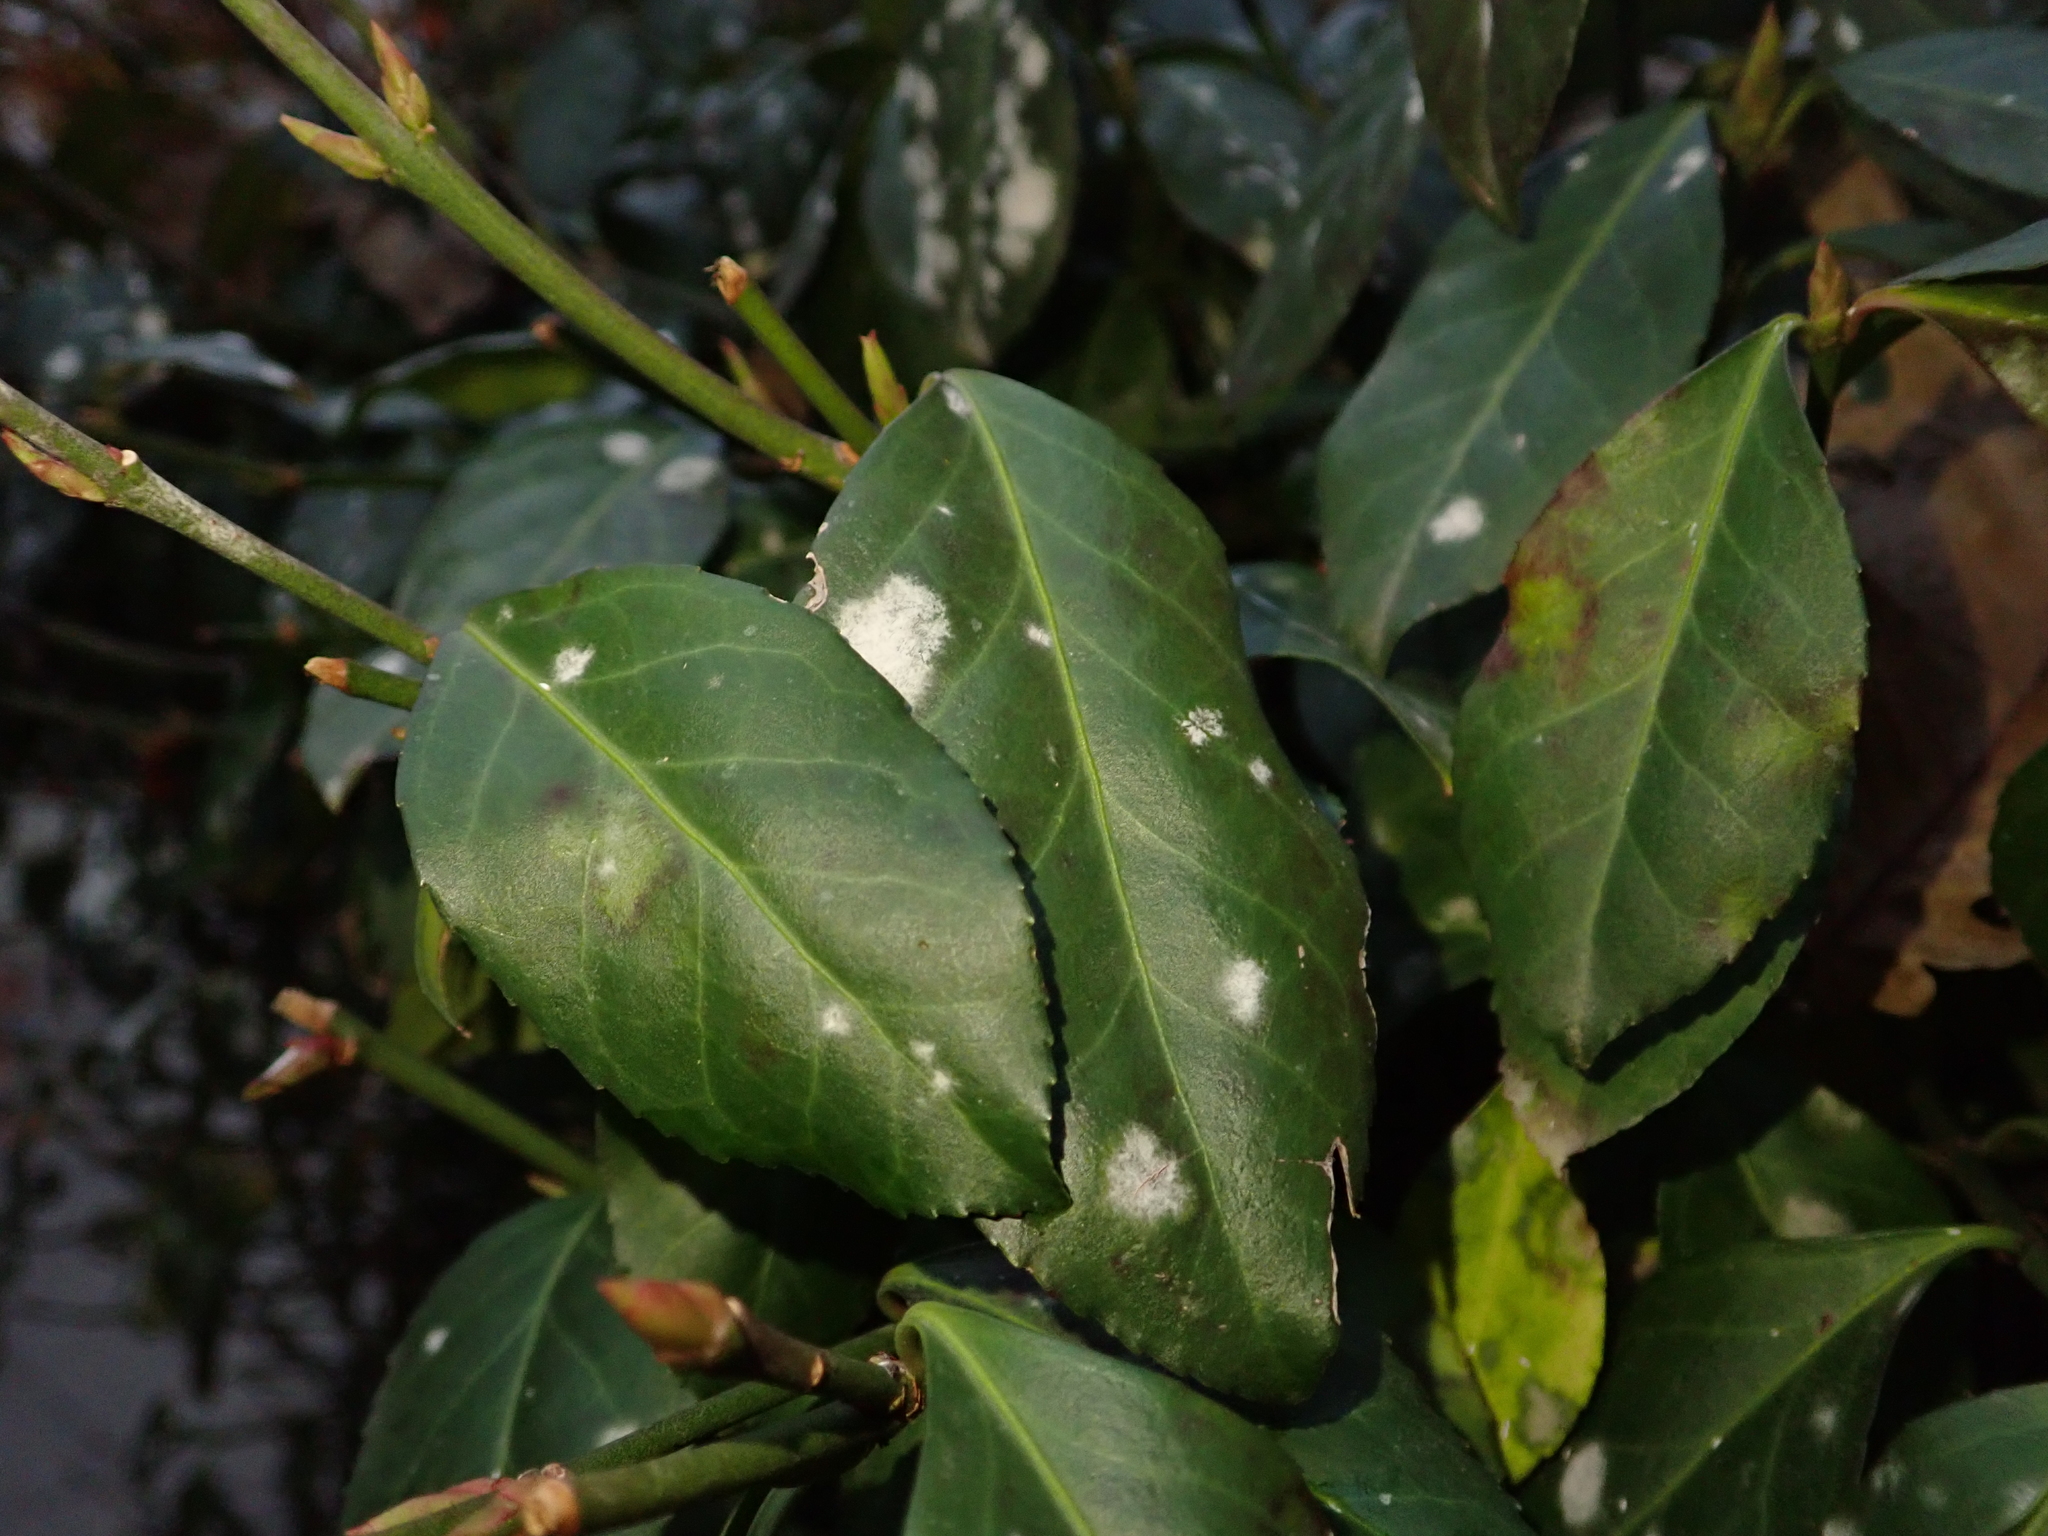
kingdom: Plantae
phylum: Tracheophyta
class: Magnoliopsida
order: Celastrales
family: Celastraceae
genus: Euonymus
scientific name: Euonymus fortunei
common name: Climbing euonymus
